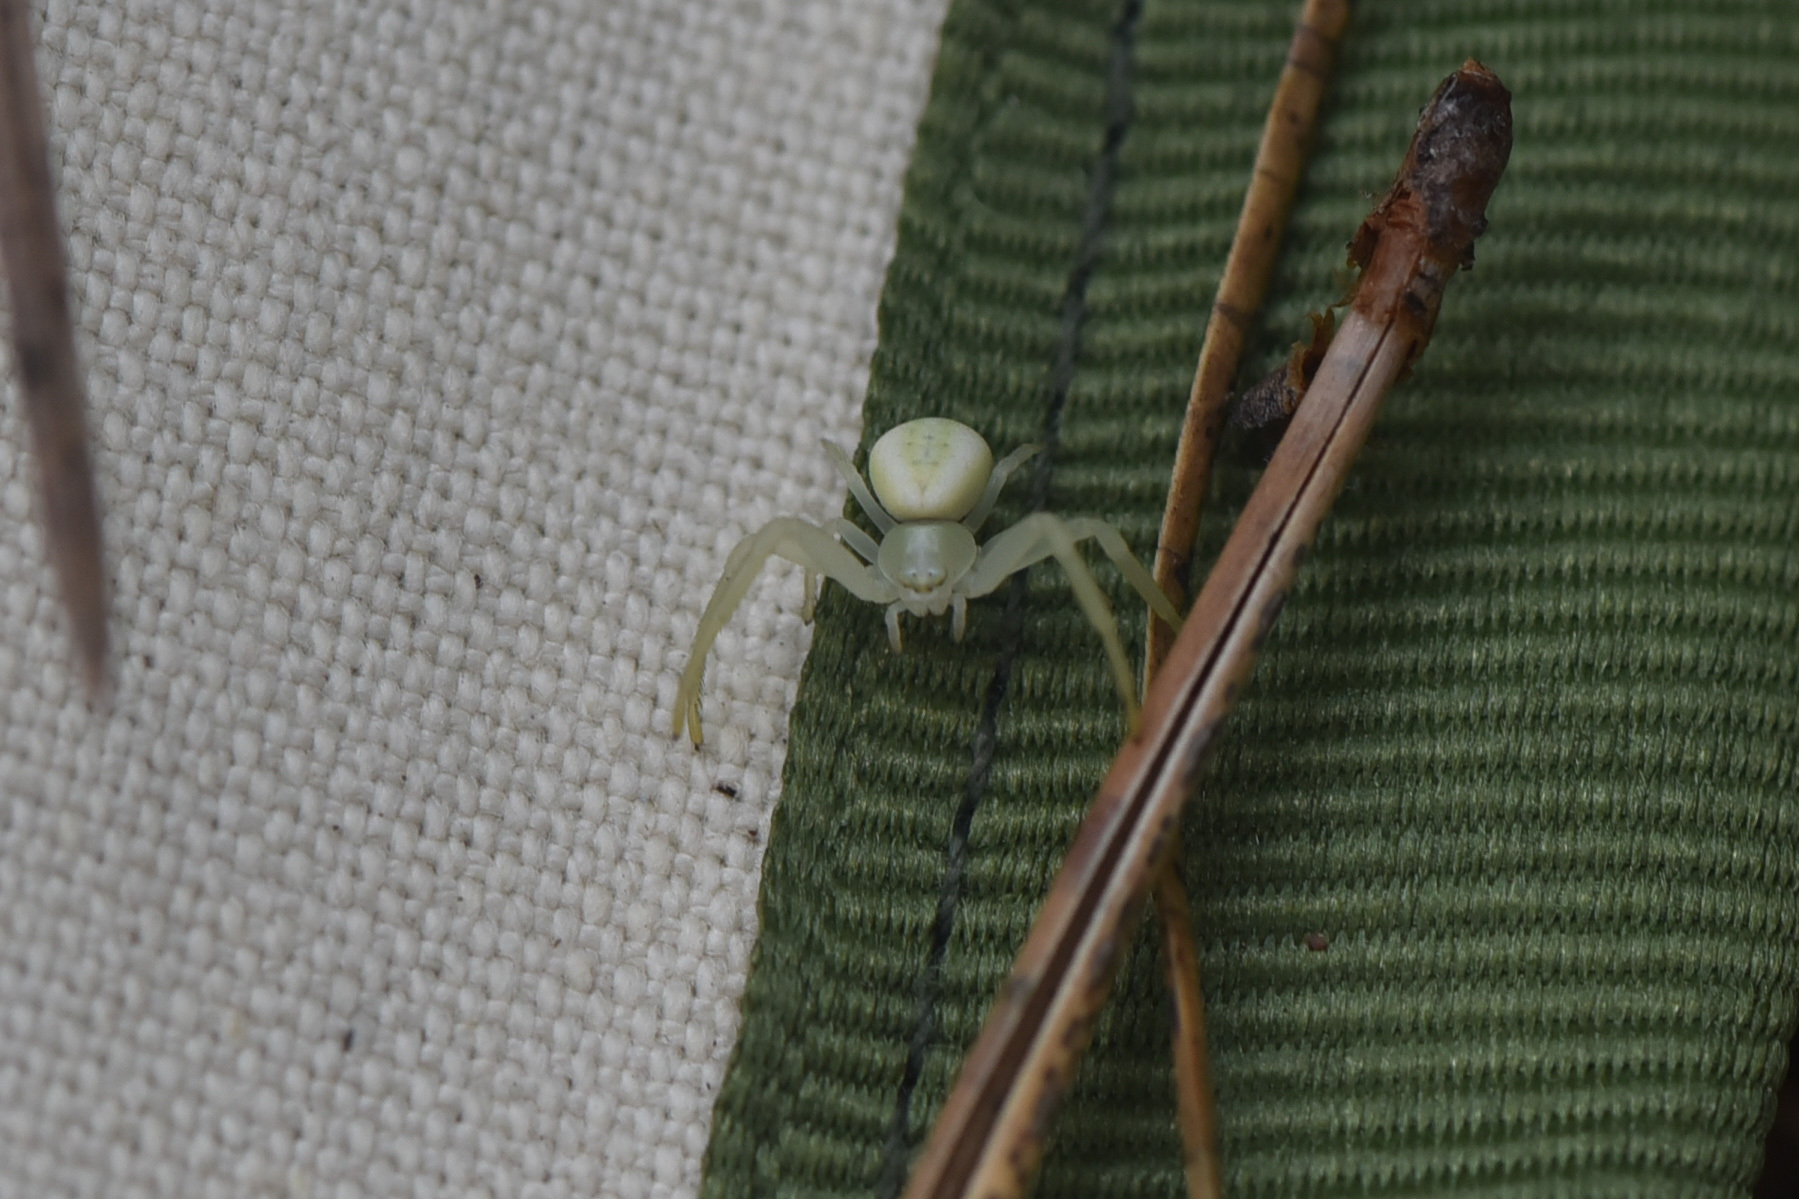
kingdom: Animalia
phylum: Arthropoda
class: Arachnida
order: Araneae
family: Thomisidae
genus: Misumena
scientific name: Misumena vatia
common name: Goldenrod crab spider
